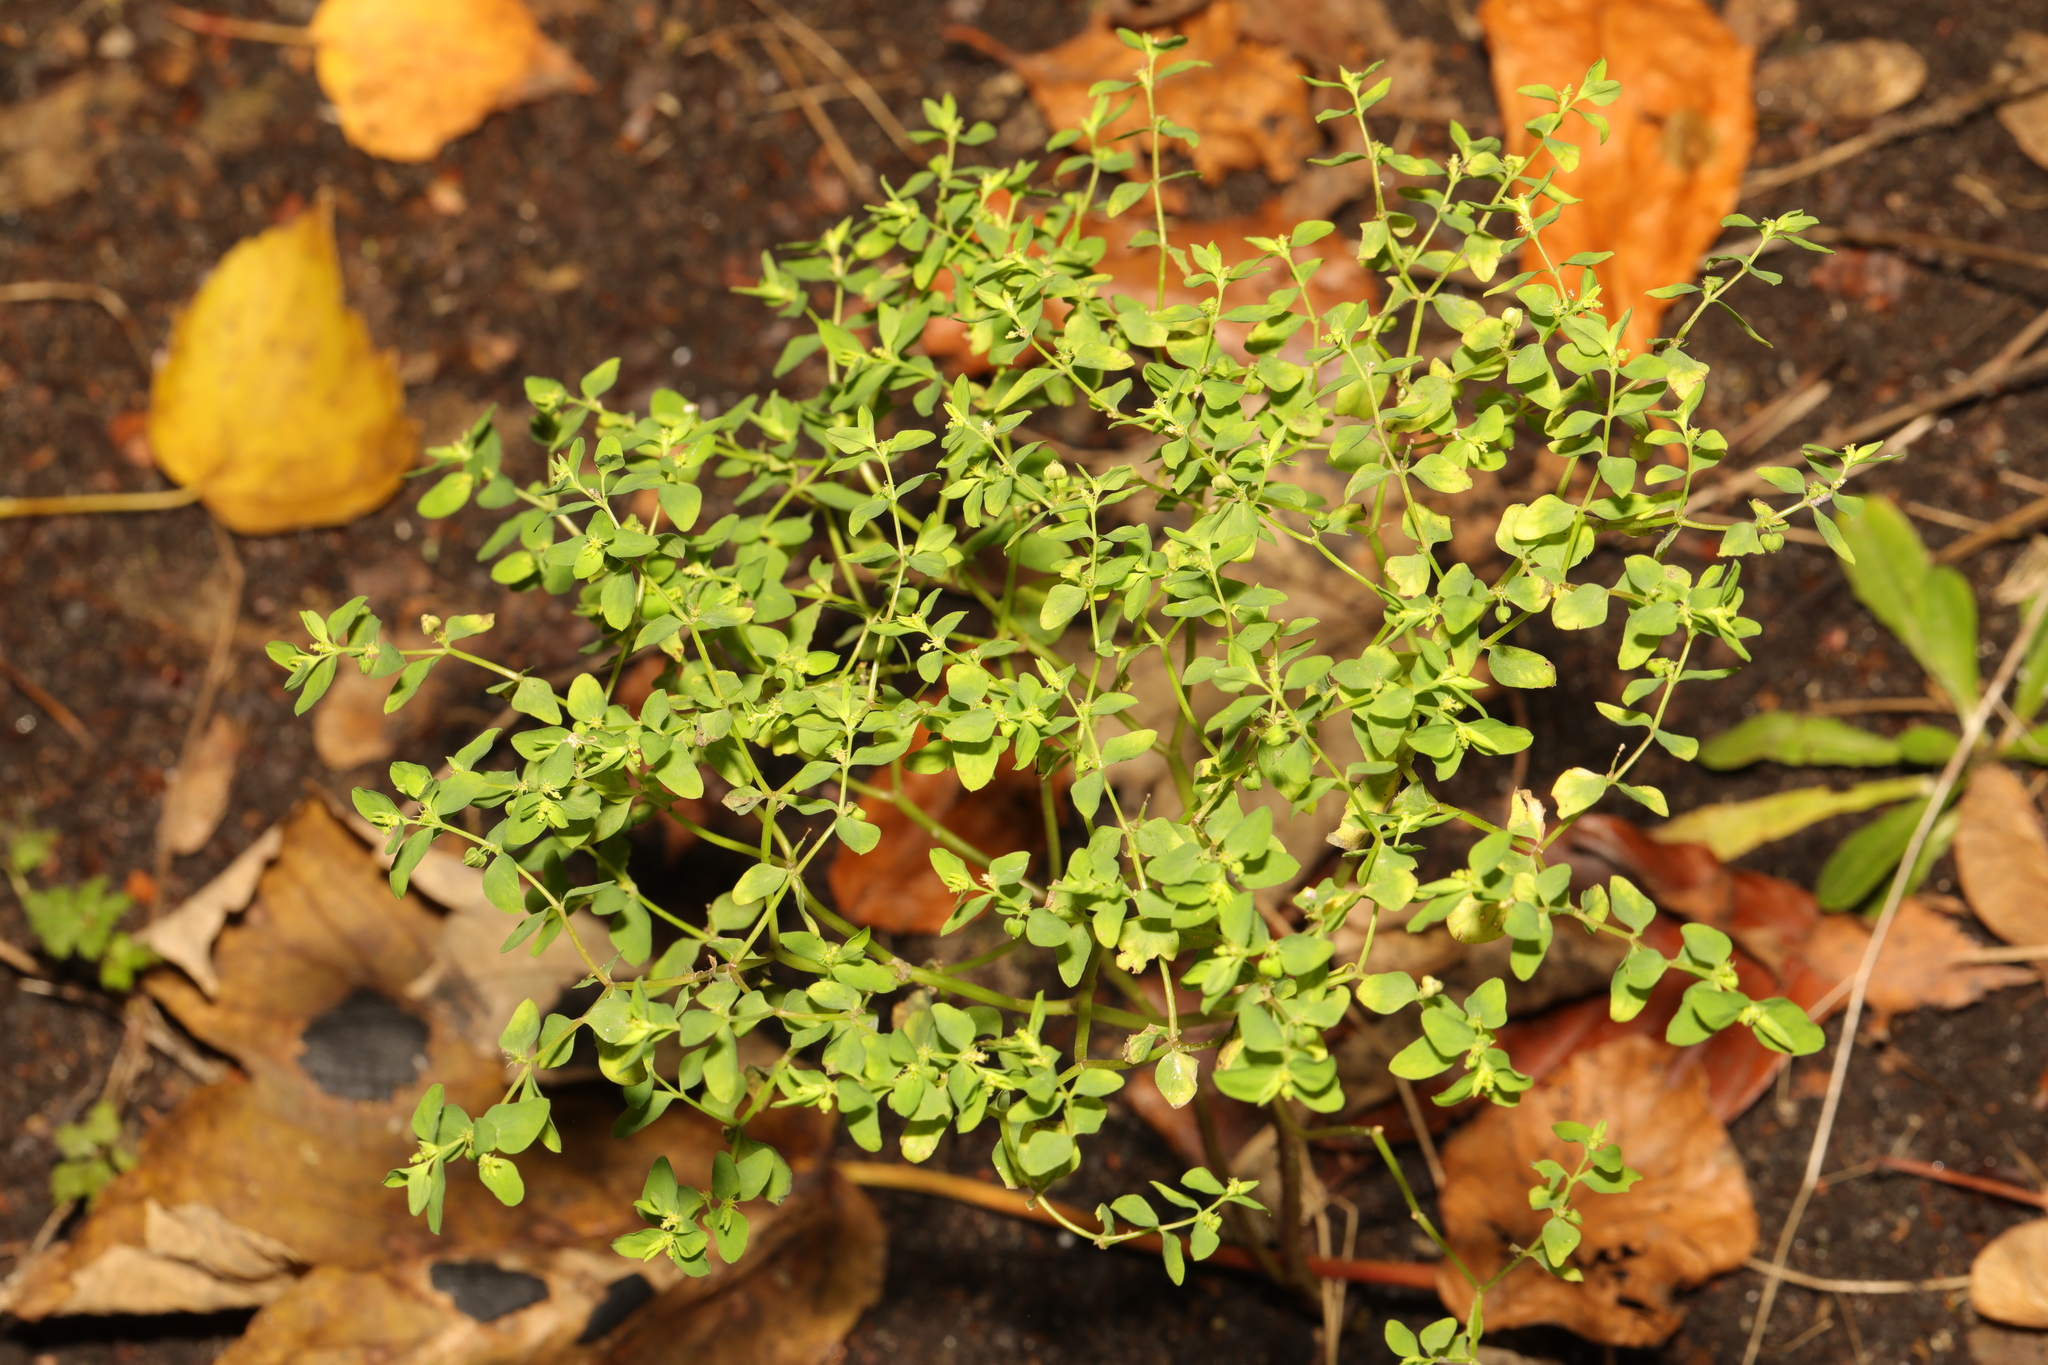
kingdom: Plantae
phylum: Tracheophyta
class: Magnoliopsida
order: Malpighiales
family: Euphorbiaceae
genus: Euphorbia
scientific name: Euphorbia peplus
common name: Petty spurge
